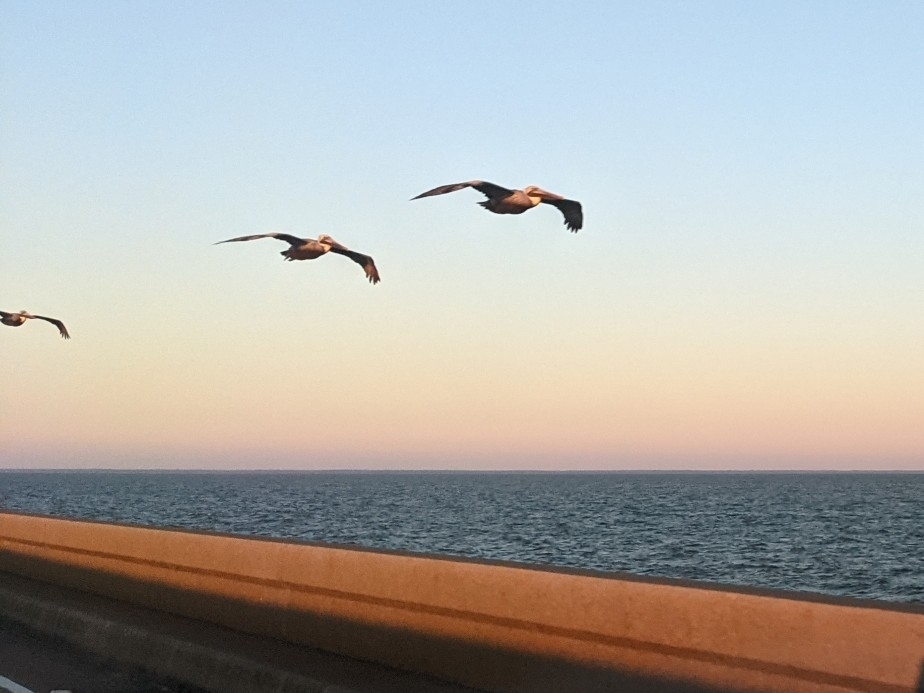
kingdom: Animalia
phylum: Chordata
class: Aves
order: Pelecaniformes
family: Pelecanidae
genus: Pelecanus
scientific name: Pelecanus occidentalis
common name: Brown pelican
